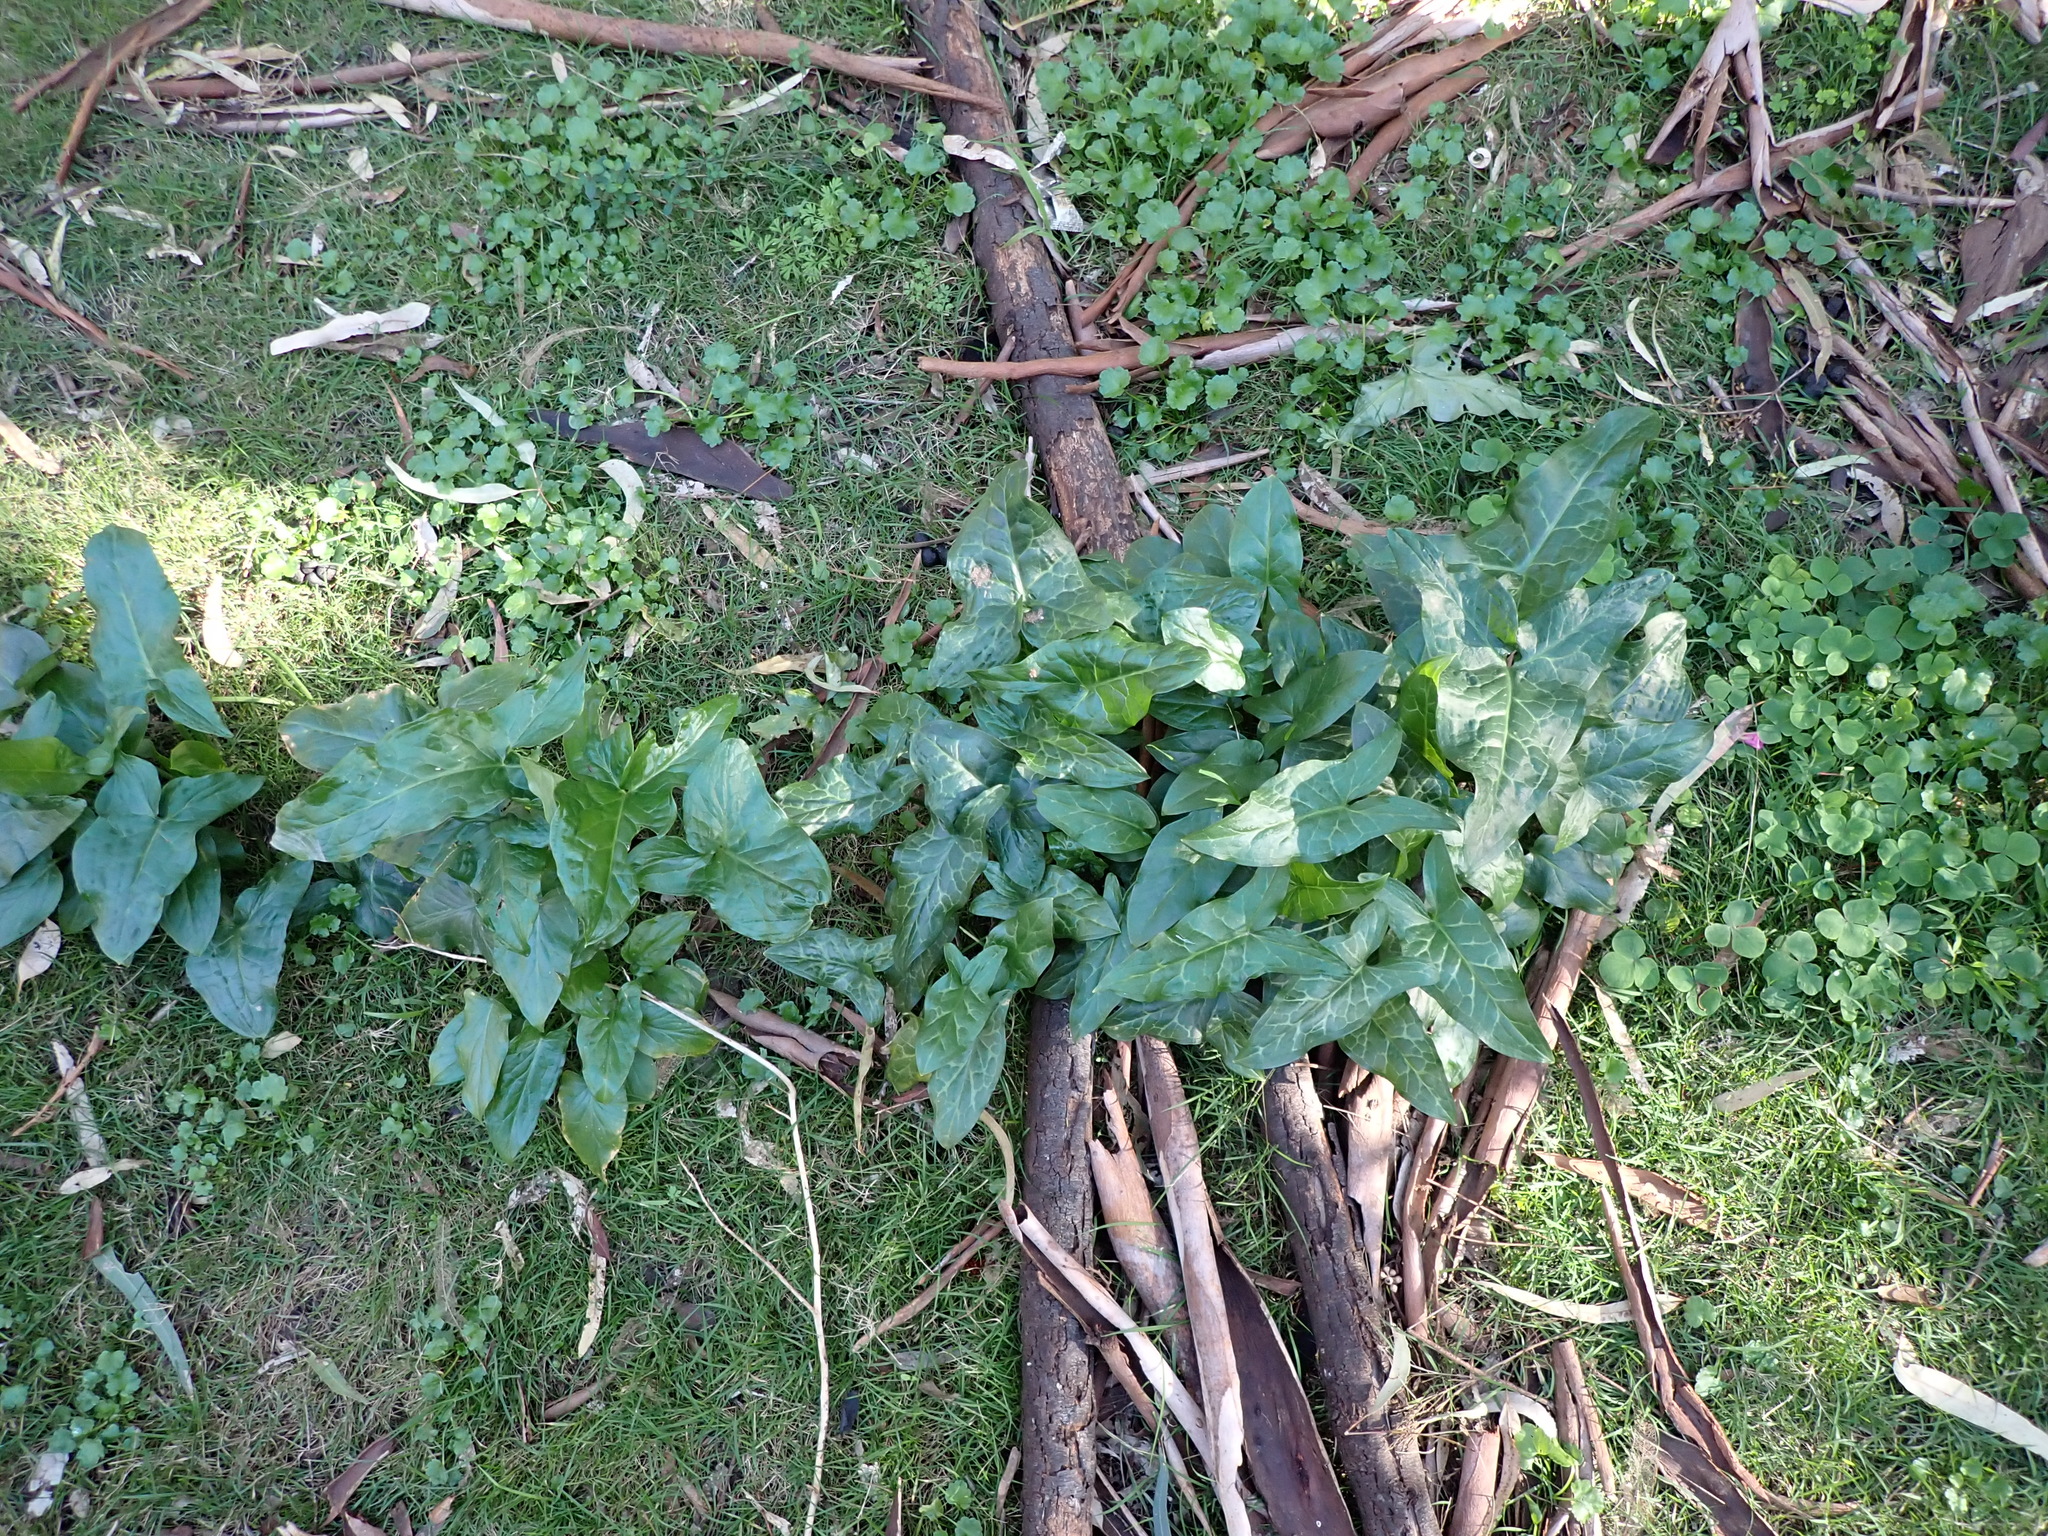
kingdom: Plantae
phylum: Tracheophyta
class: Liliopsida
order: Alismatales
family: Araceae
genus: Arum
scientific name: Arum italicum
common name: Italian lords-and-ladies
